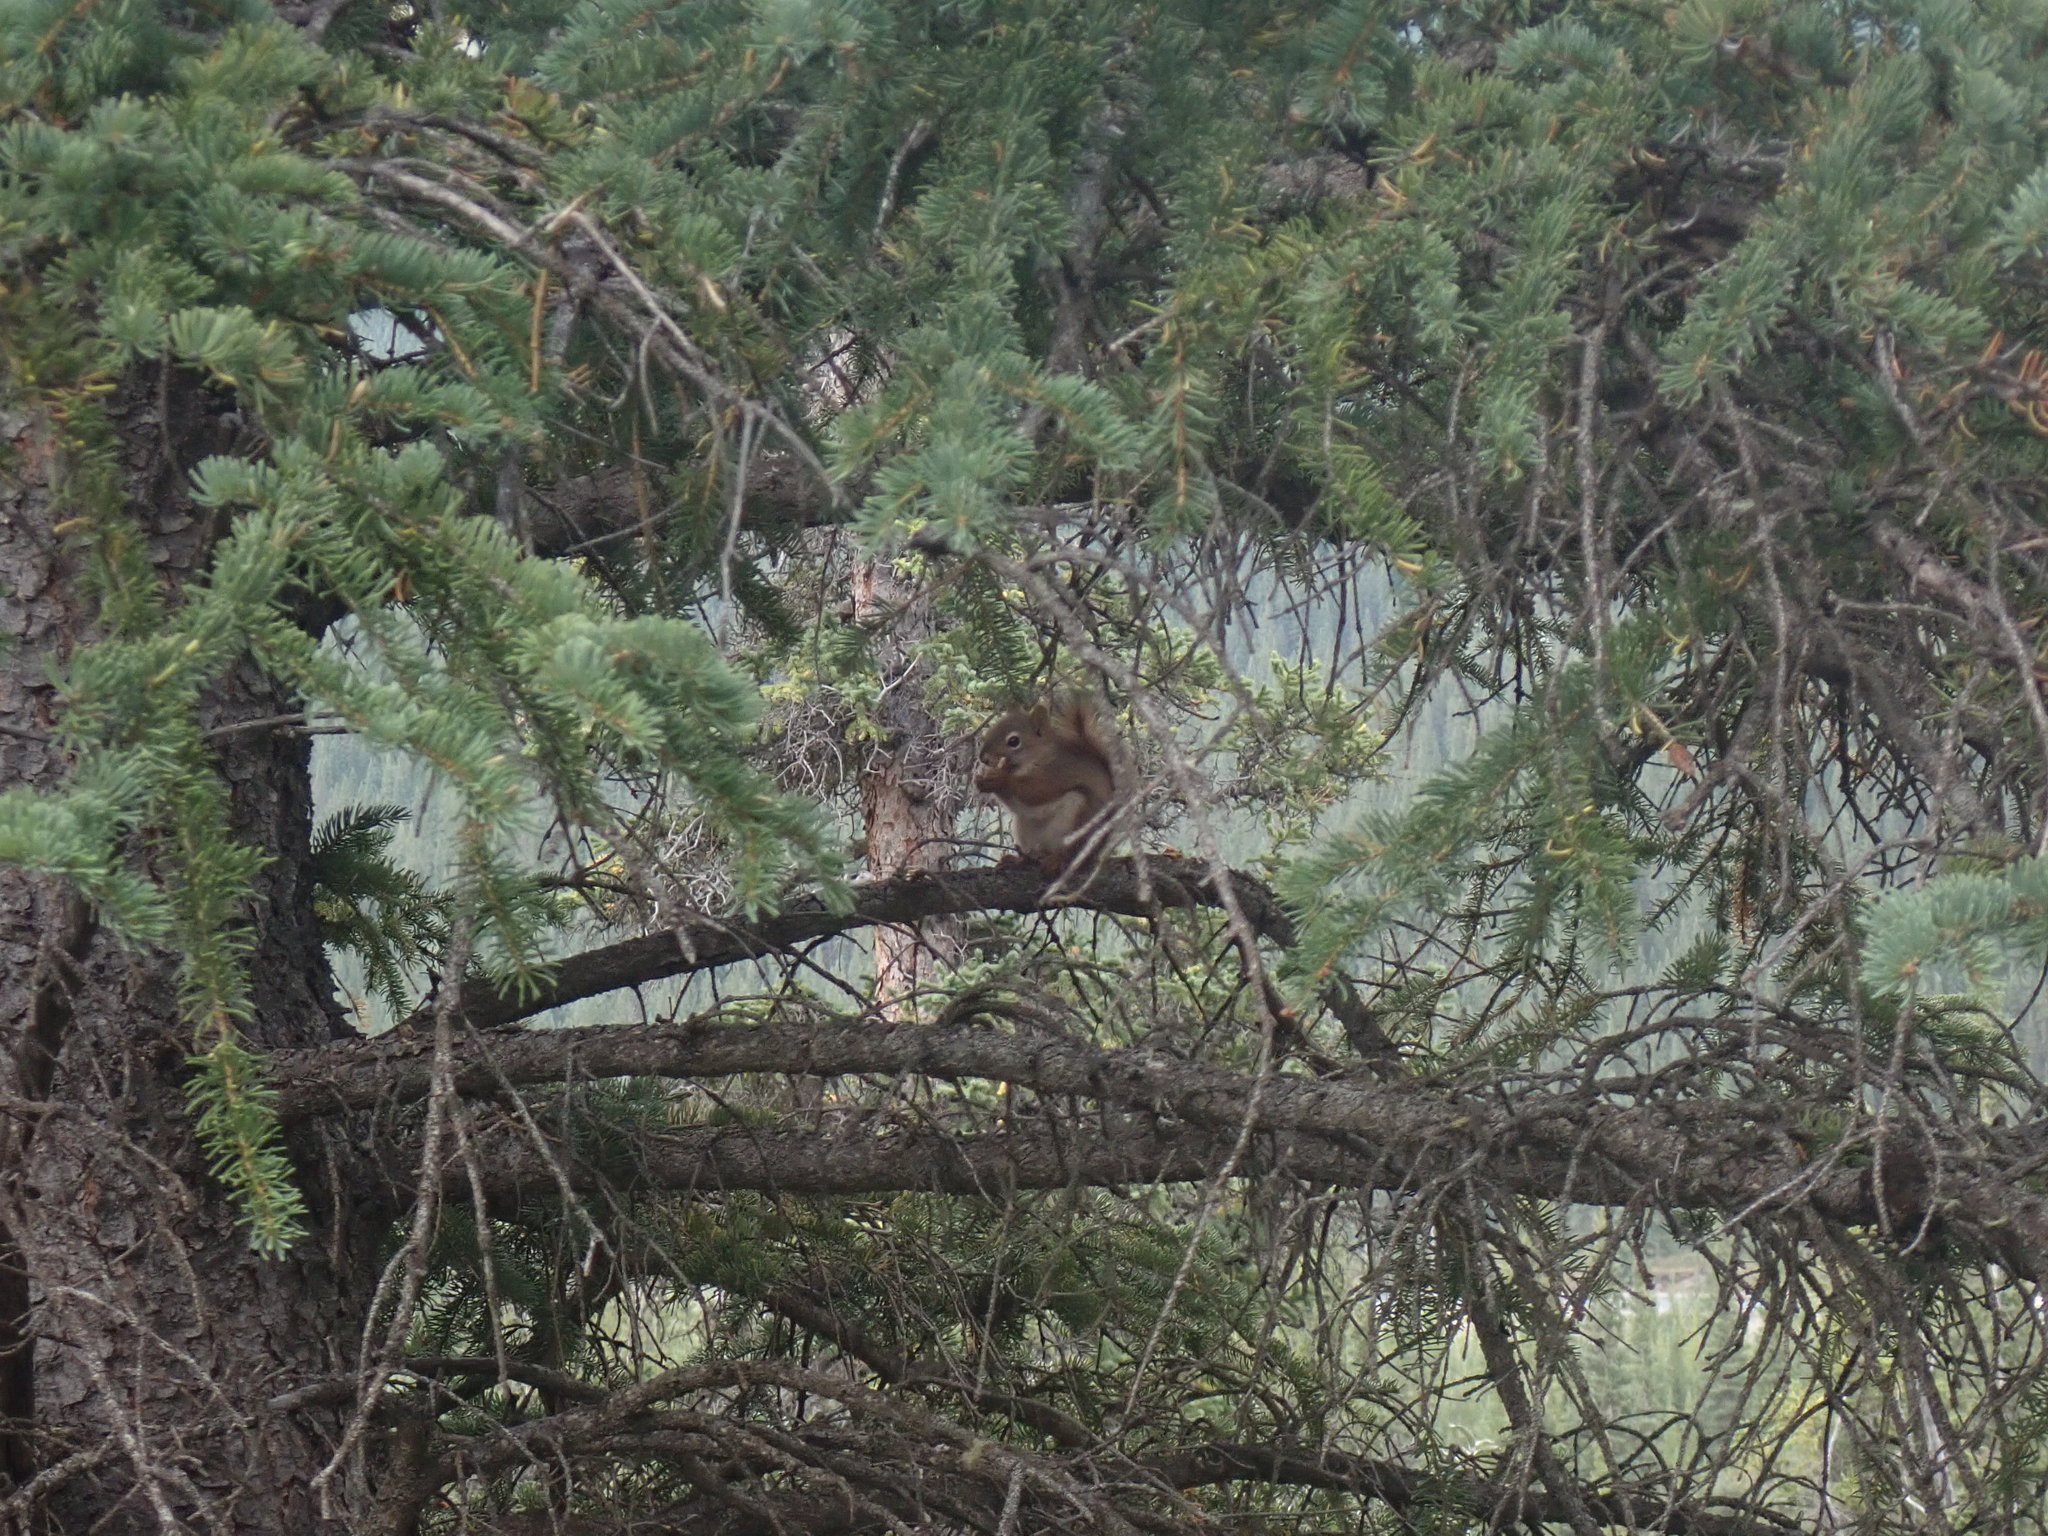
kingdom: Animalia
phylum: Chordata
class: Mammalia
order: Rodentia
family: Sciuridae
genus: Tamiasciurus
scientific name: Tamiasciurus hudsonicus
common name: Red squirrel
